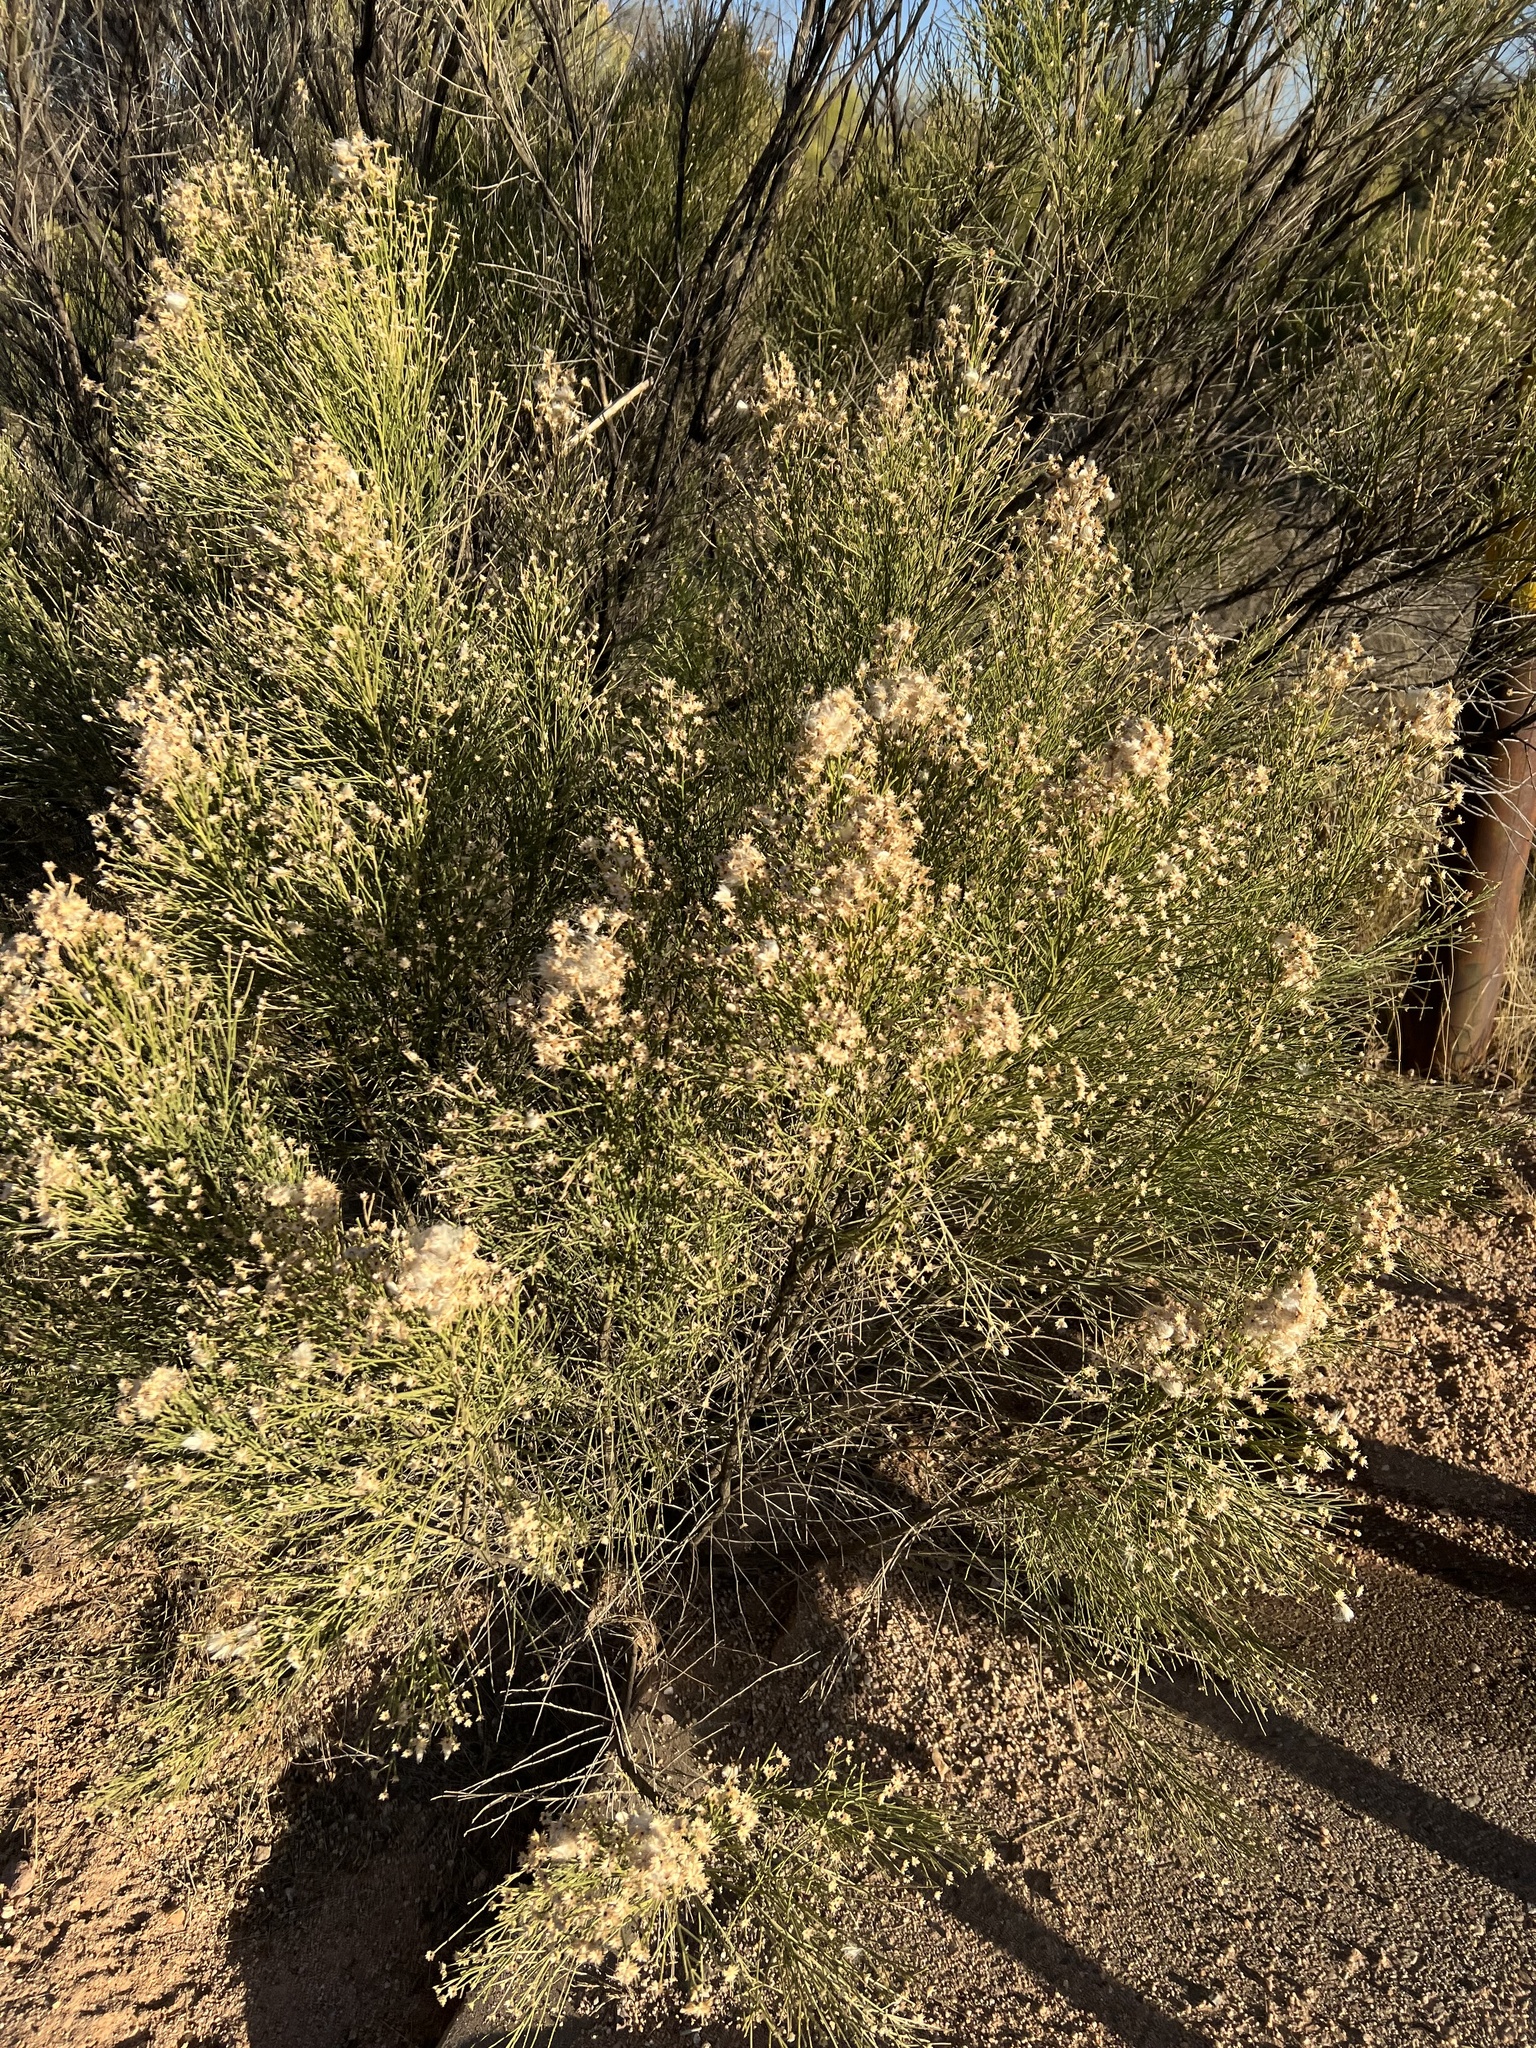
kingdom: Plantae
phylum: Tracheophyta
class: Magnoliopsida
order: Asterales
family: Asteraceae
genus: Baccharis
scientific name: Baccharis sarothroides
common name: Desert-broom
